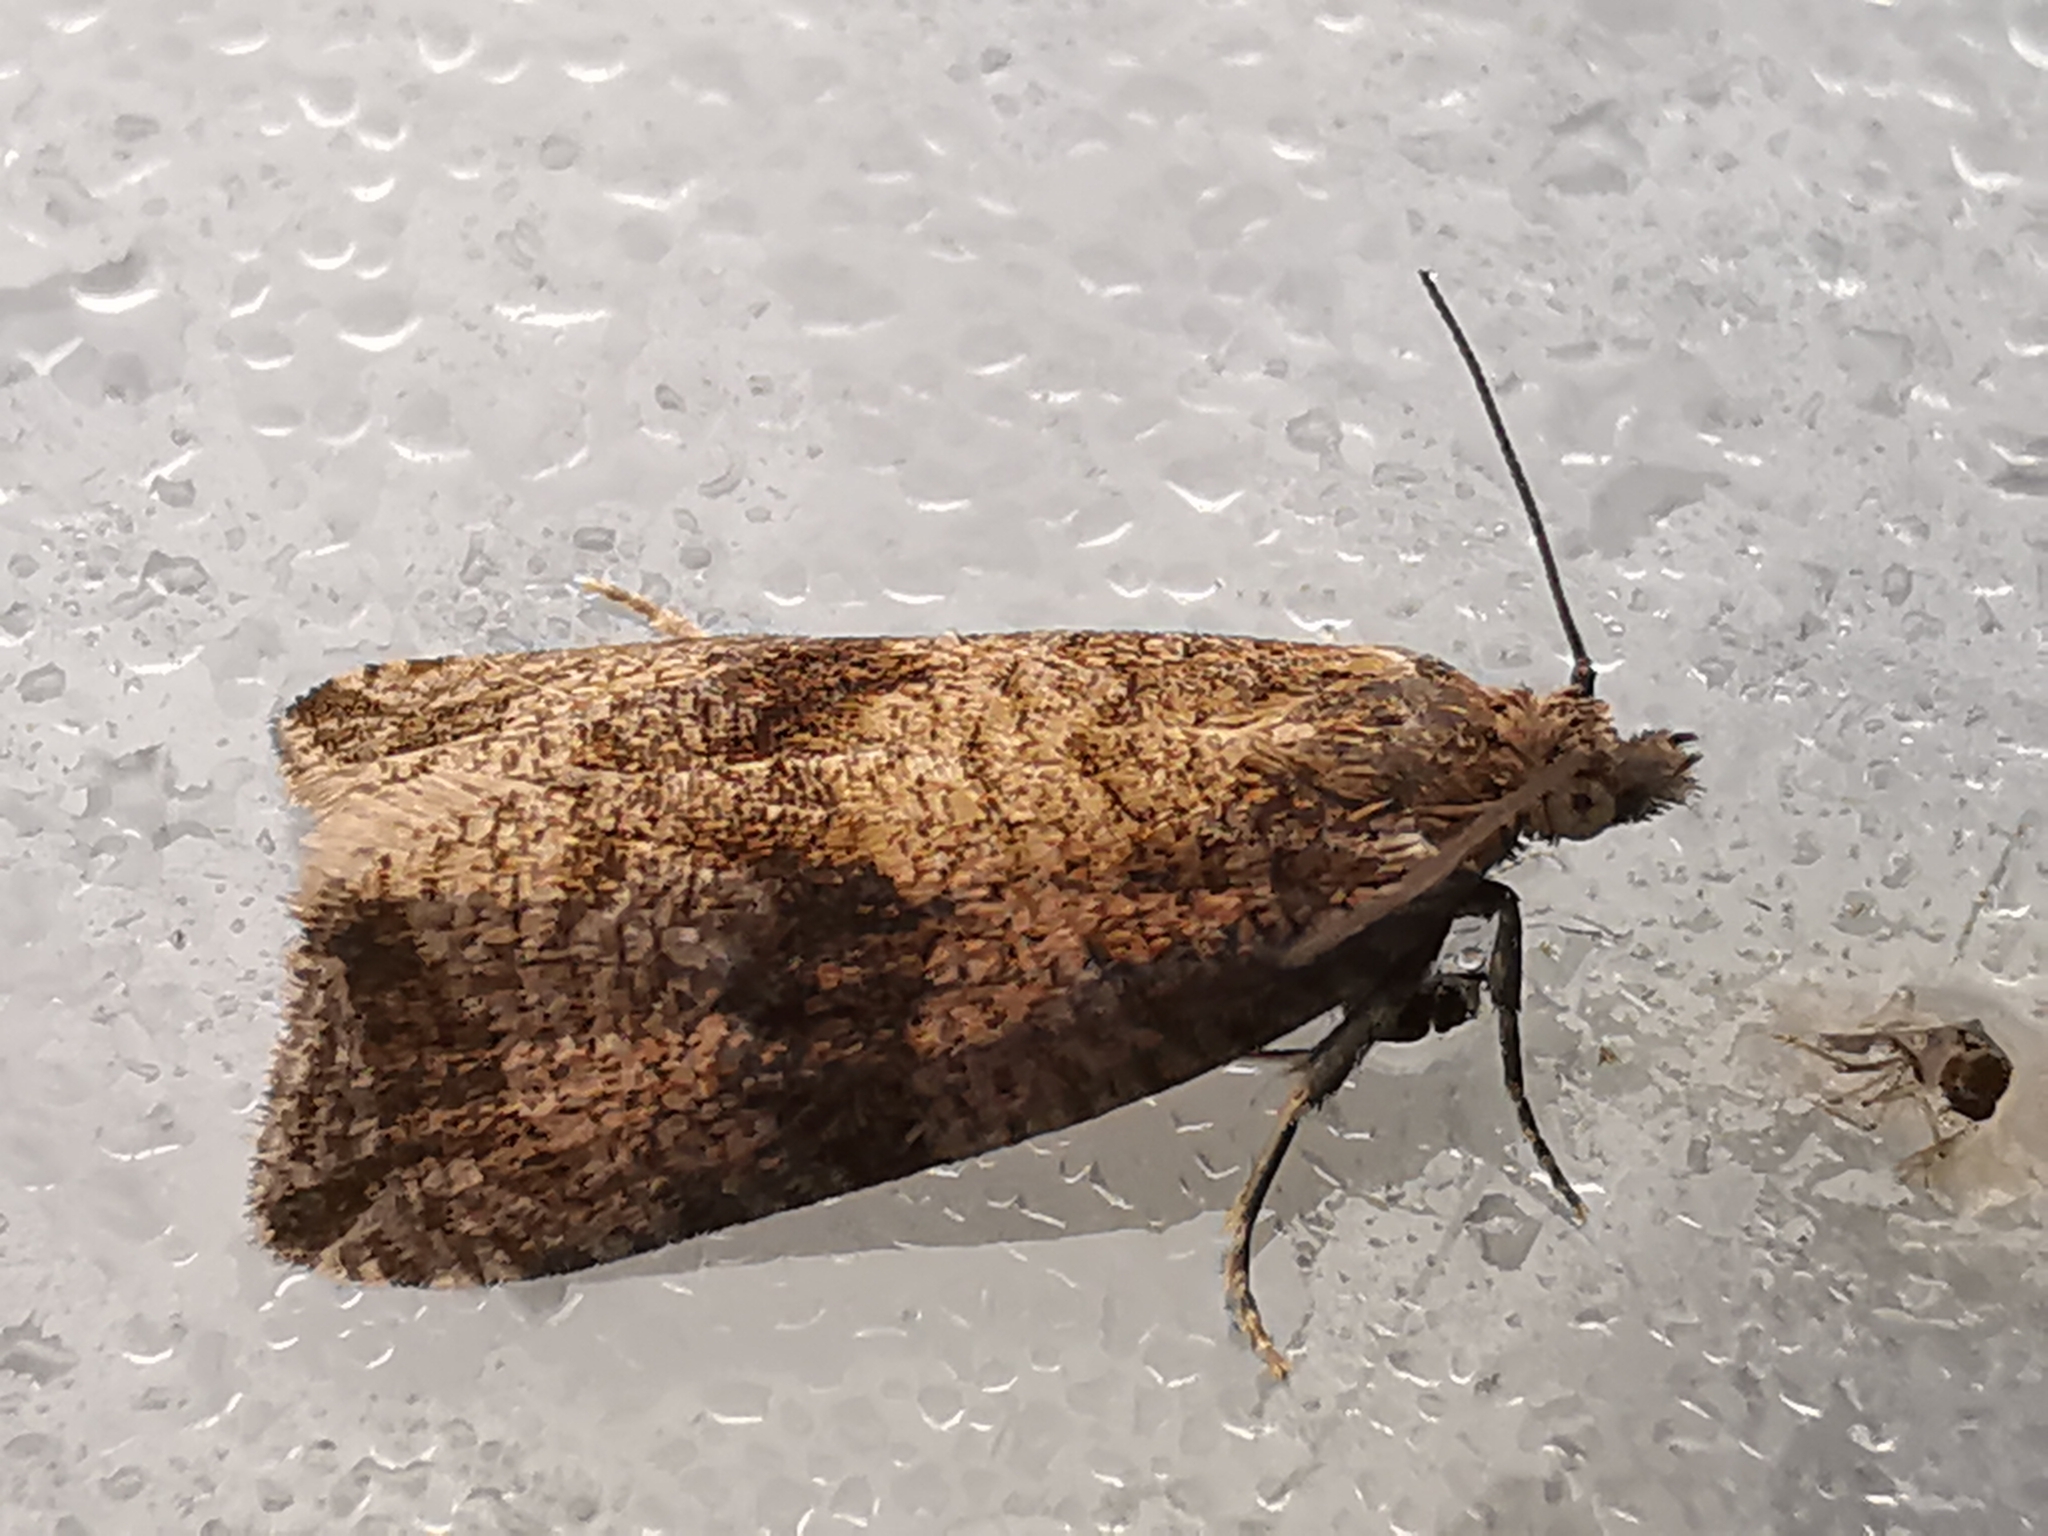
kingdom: Animalia
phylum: Arthropoda
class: Insecta
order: Lepidoptera
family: Tortricidae
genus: Celypha
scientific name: Celypha striana
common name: Barred marble
